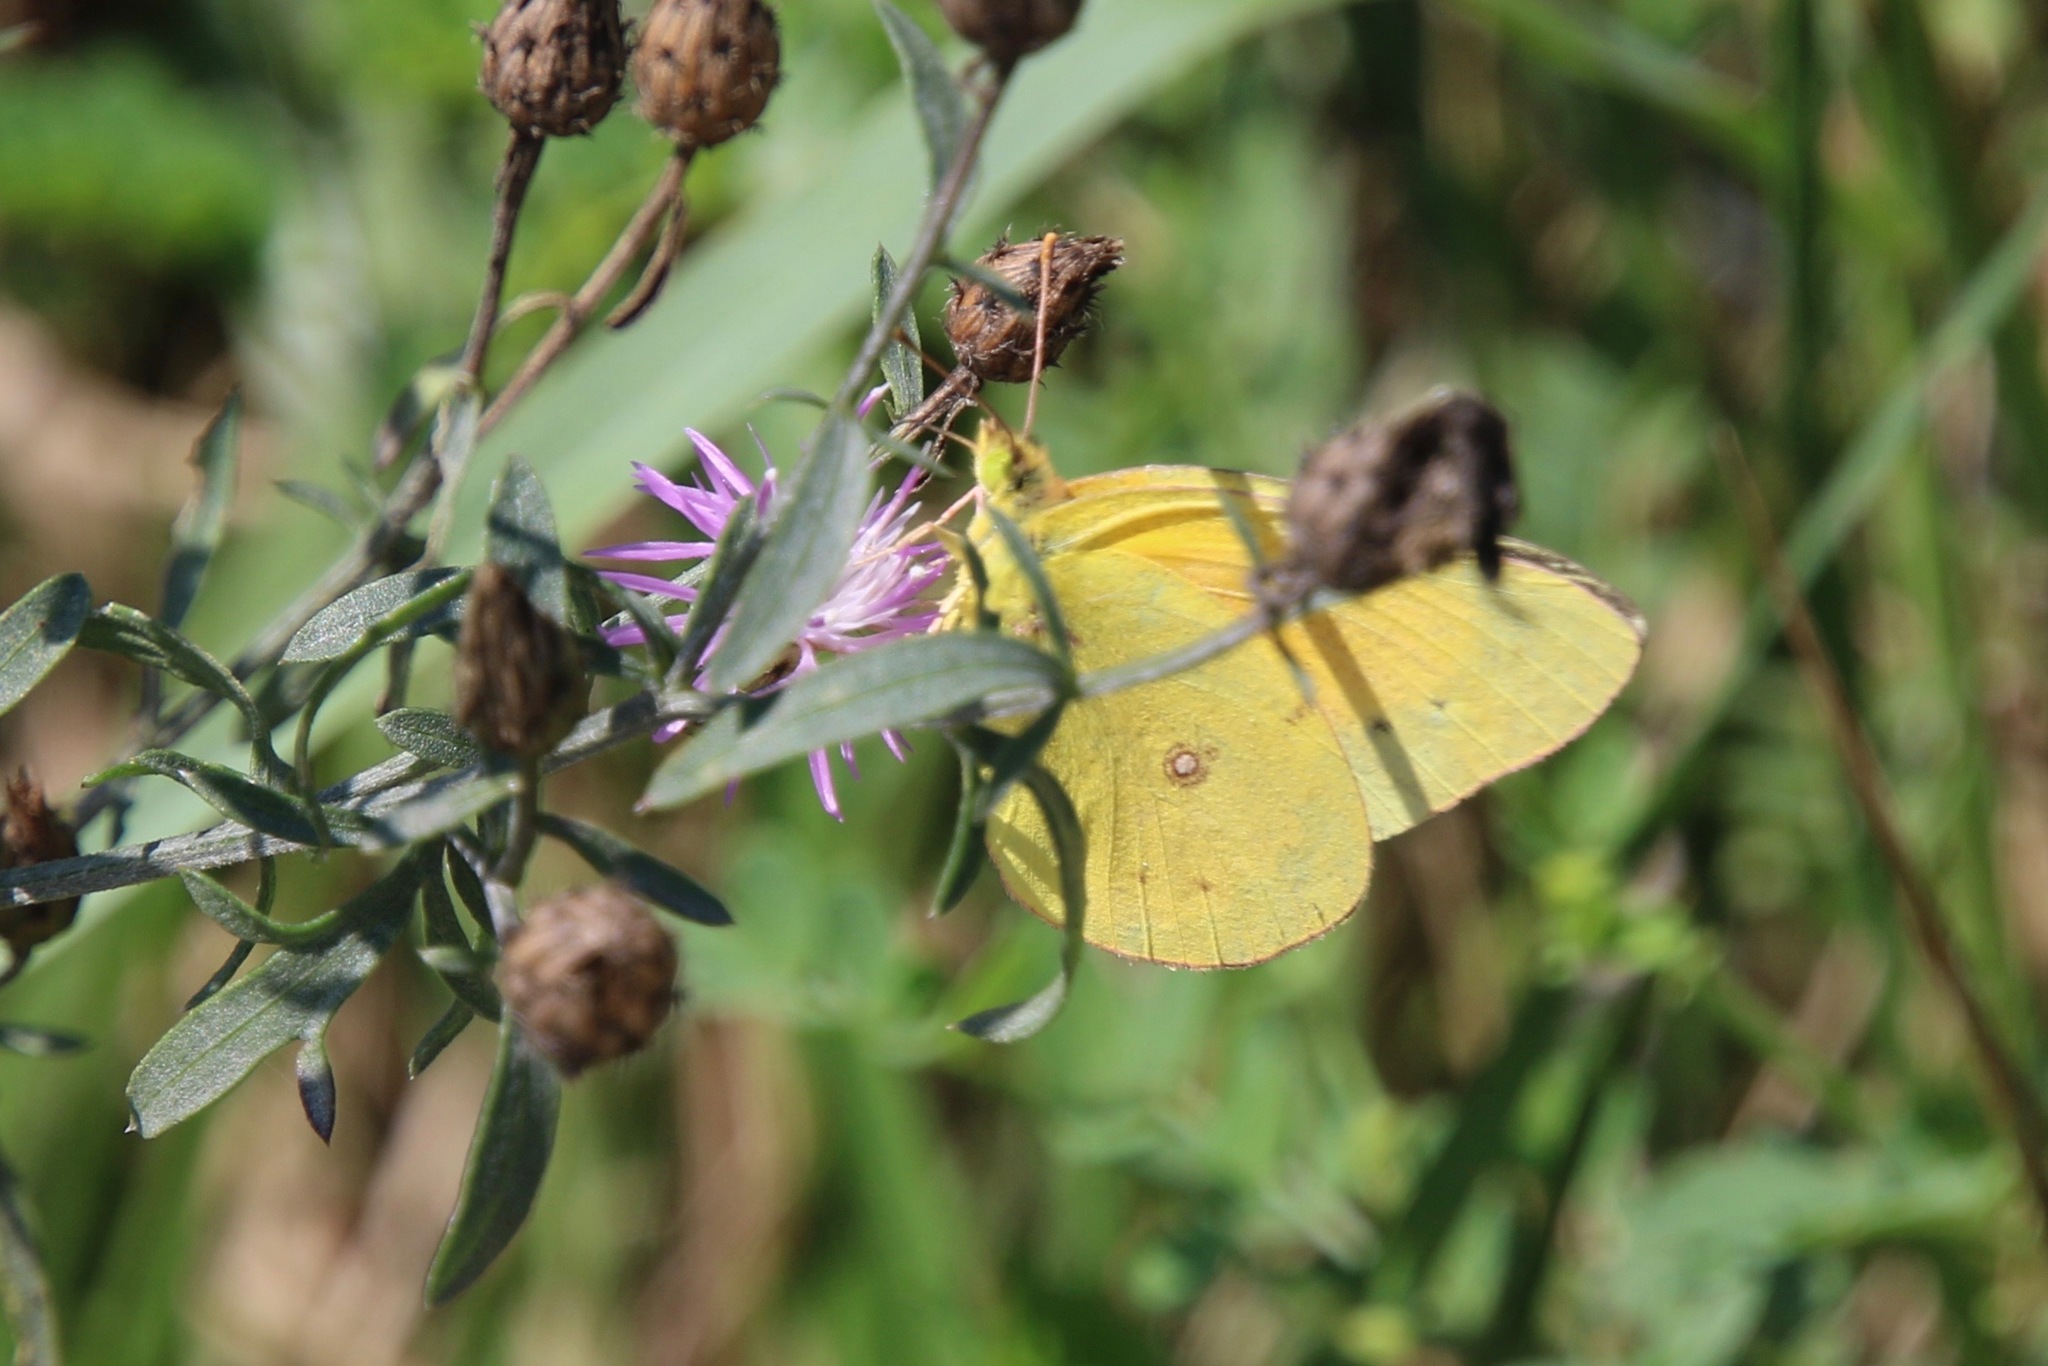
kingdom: Animalia
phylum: Arthropoda
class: Insecta
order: Lepidoptera
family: Pieridae
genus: Colias
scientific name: Colias eurytheme
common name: Alfalfa butterfly
